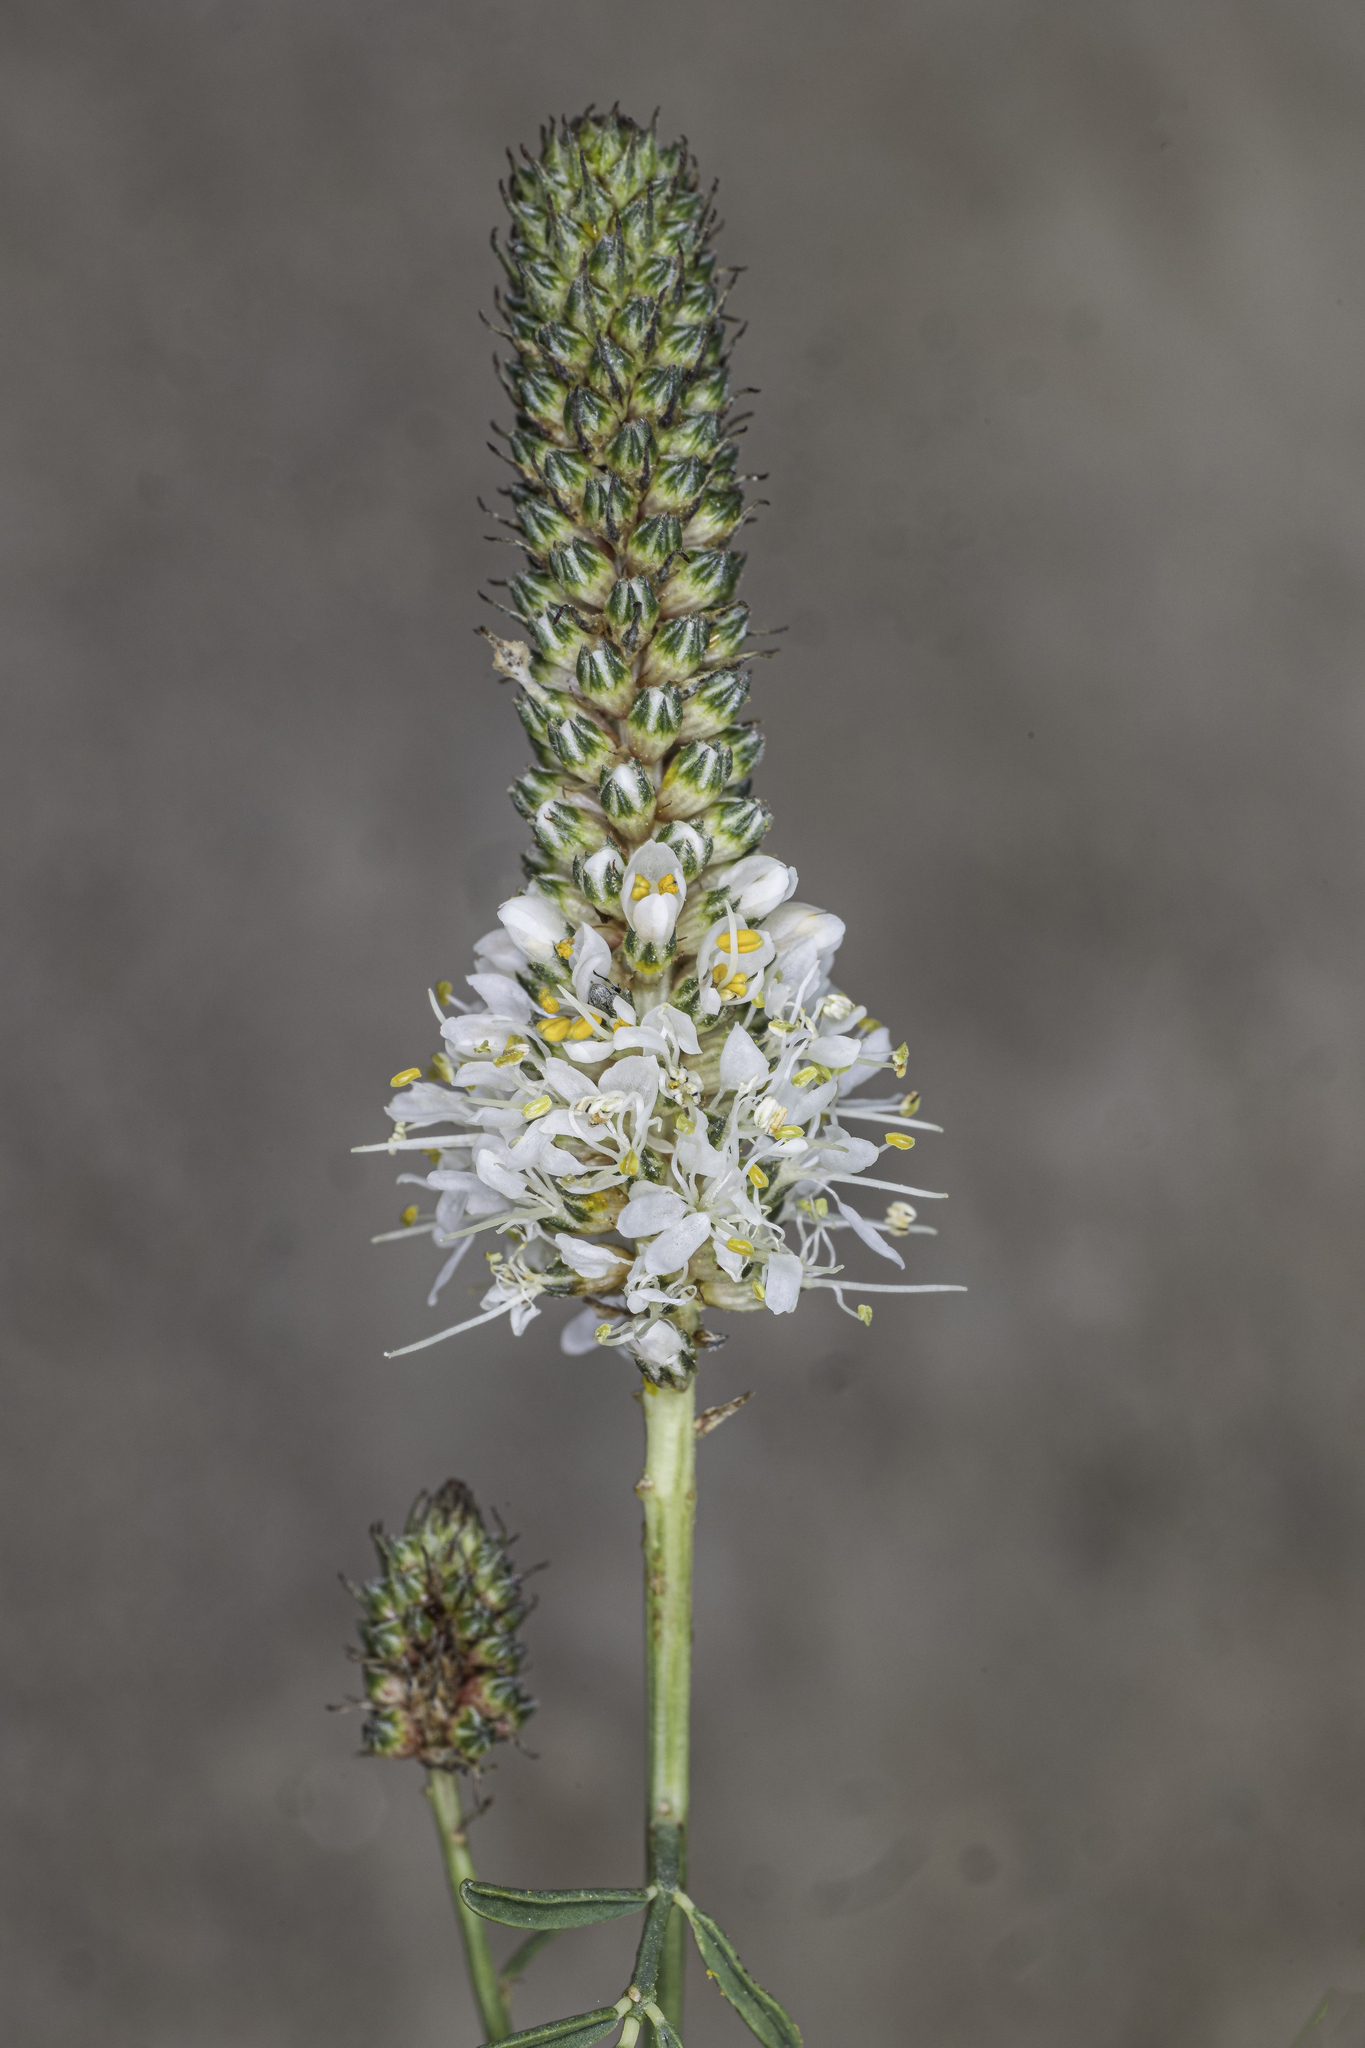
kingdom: Plantae
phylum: Tracheophyta
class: Magnoliopsida
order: Fabales
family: Fabaceae
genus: Dalea
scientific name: Dalea candida
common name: White prairie-clover
